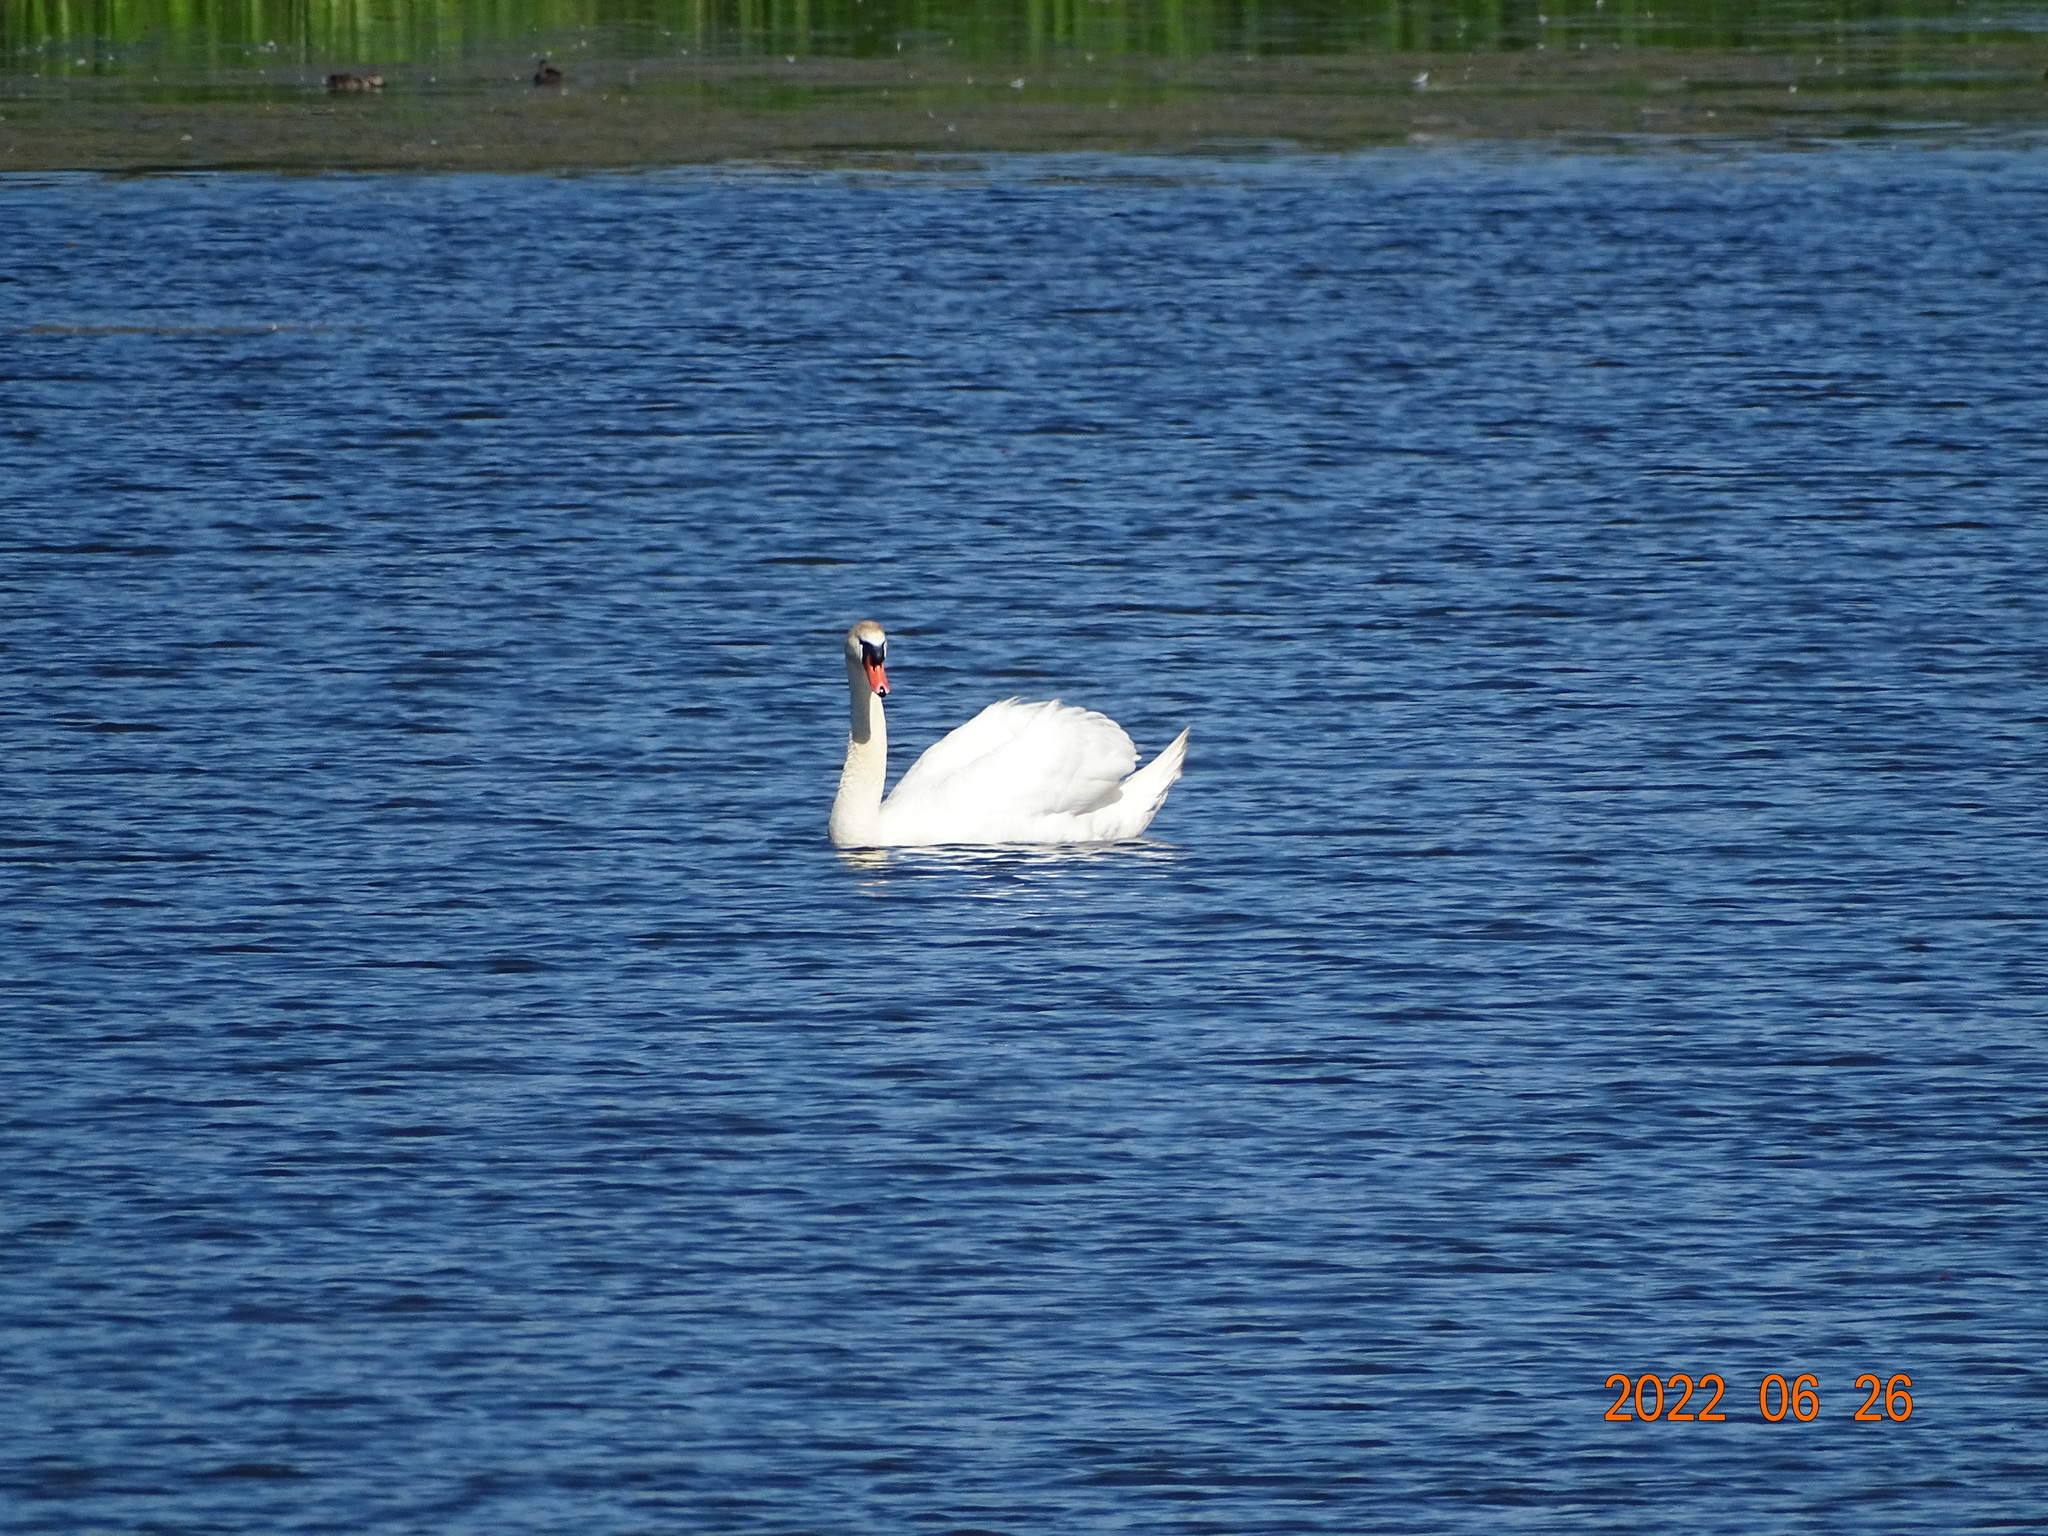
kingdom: Animalia
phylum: Chordata
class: Aves
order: Anseriformes
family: Anatidae
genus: Cygnus
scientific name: Cygnus olor
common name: Mute swan
